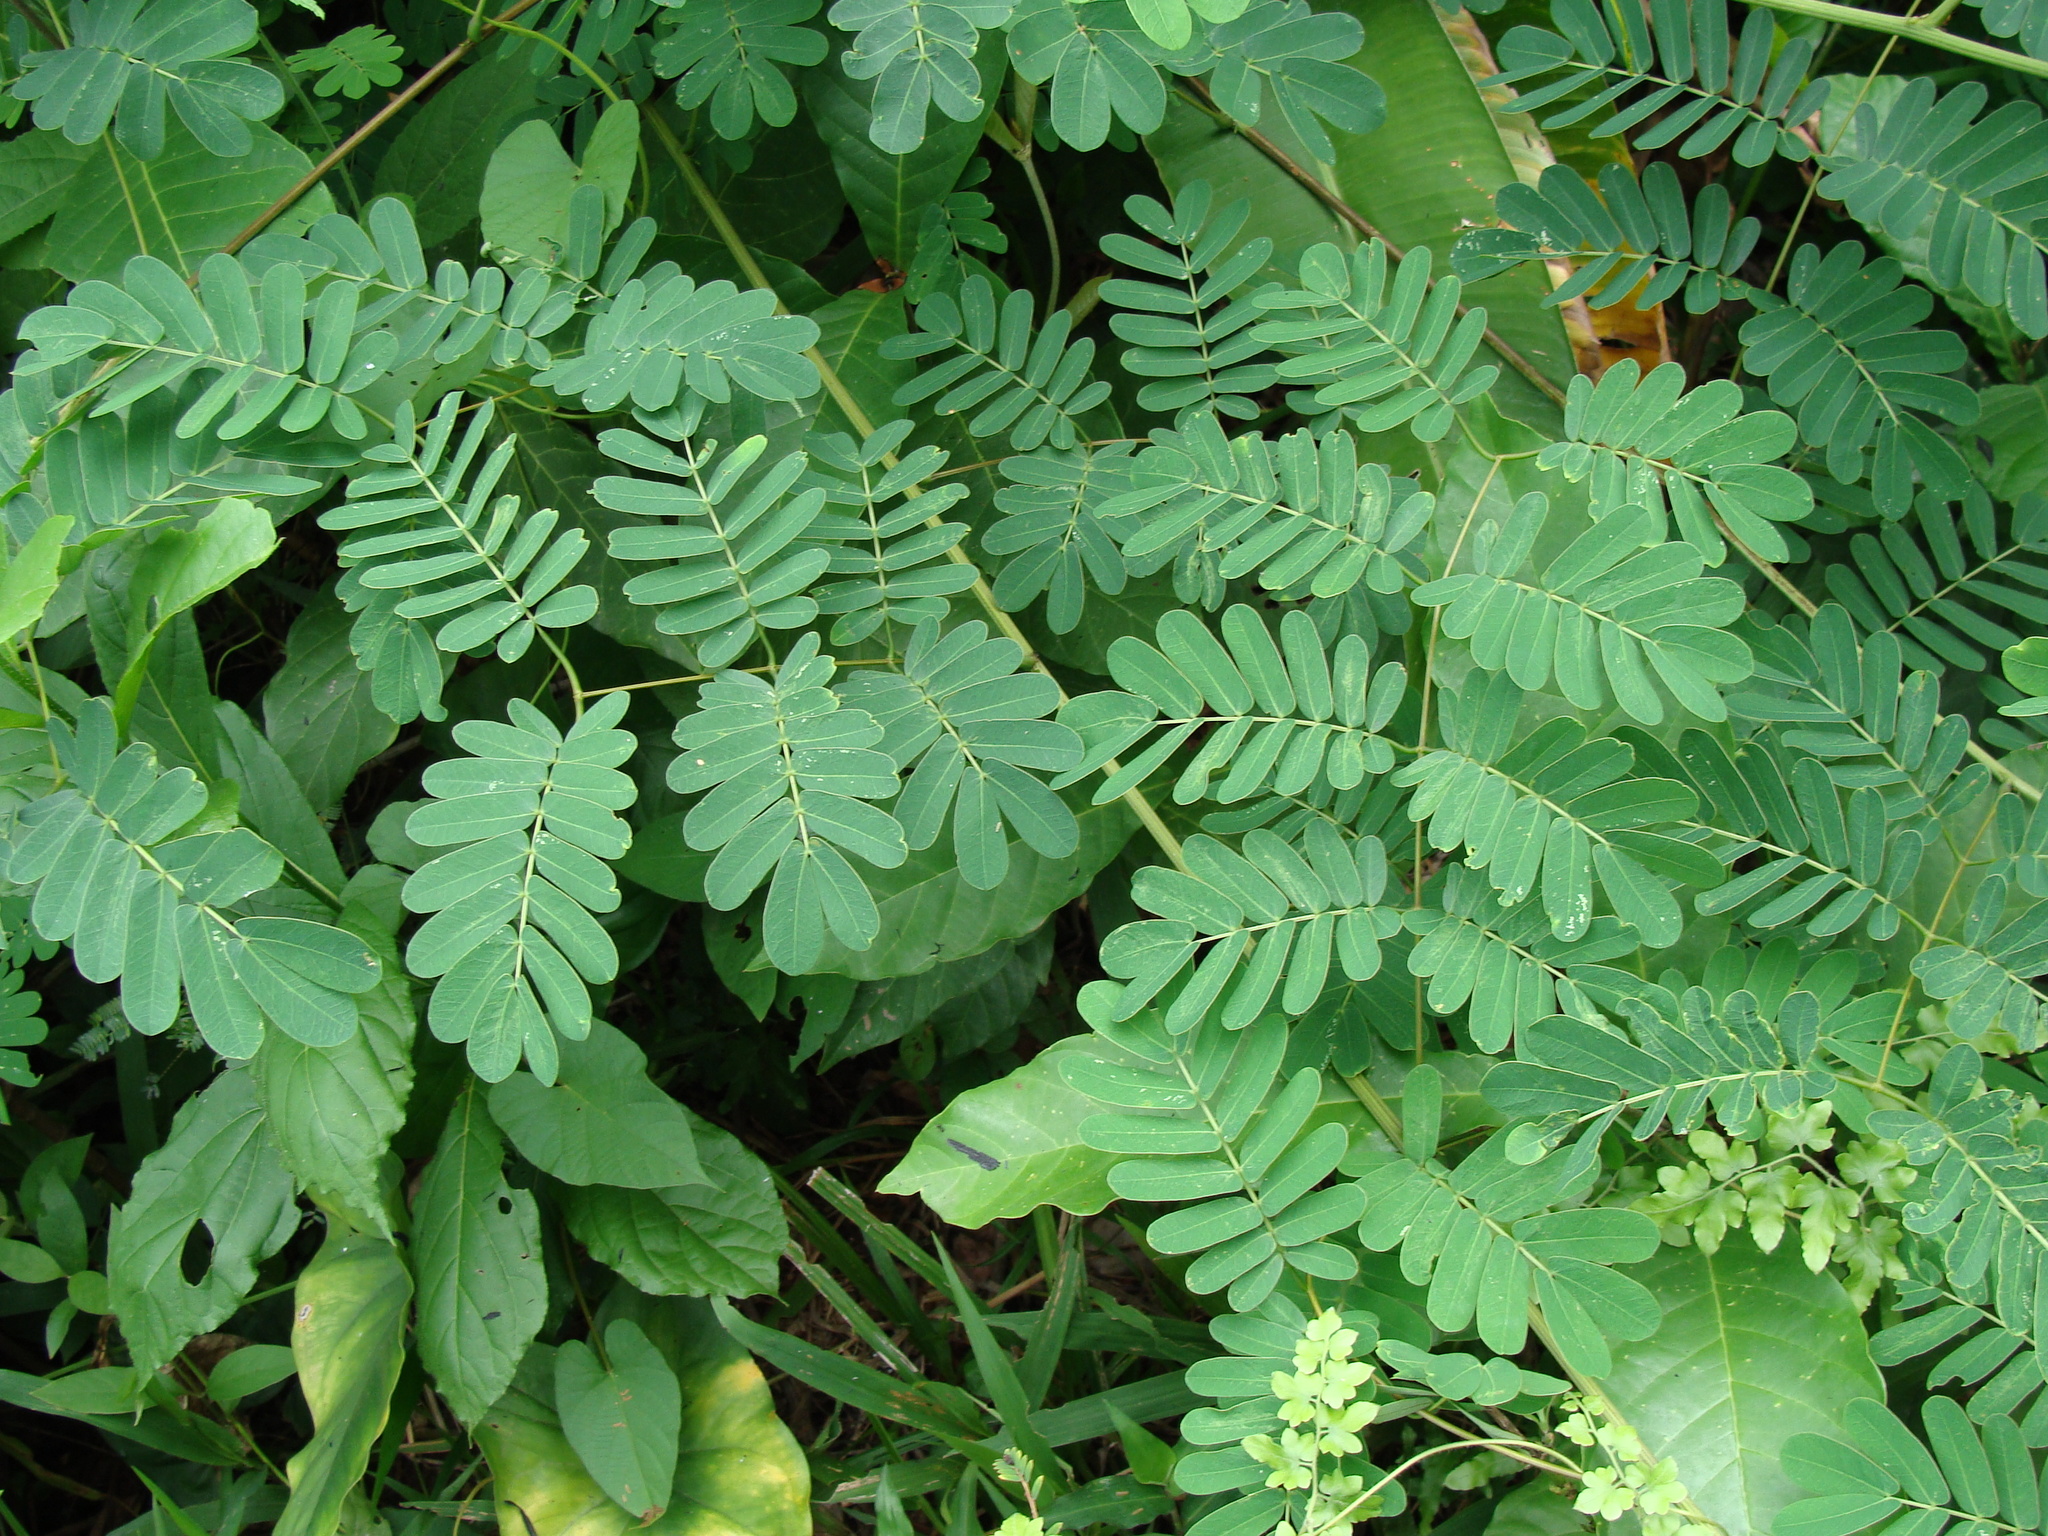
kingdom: Plantae
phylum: Tracheophyta
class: Magnoliopsida
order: Fabales
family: Fabaceae
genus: Entada
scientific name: Entada polystachya
